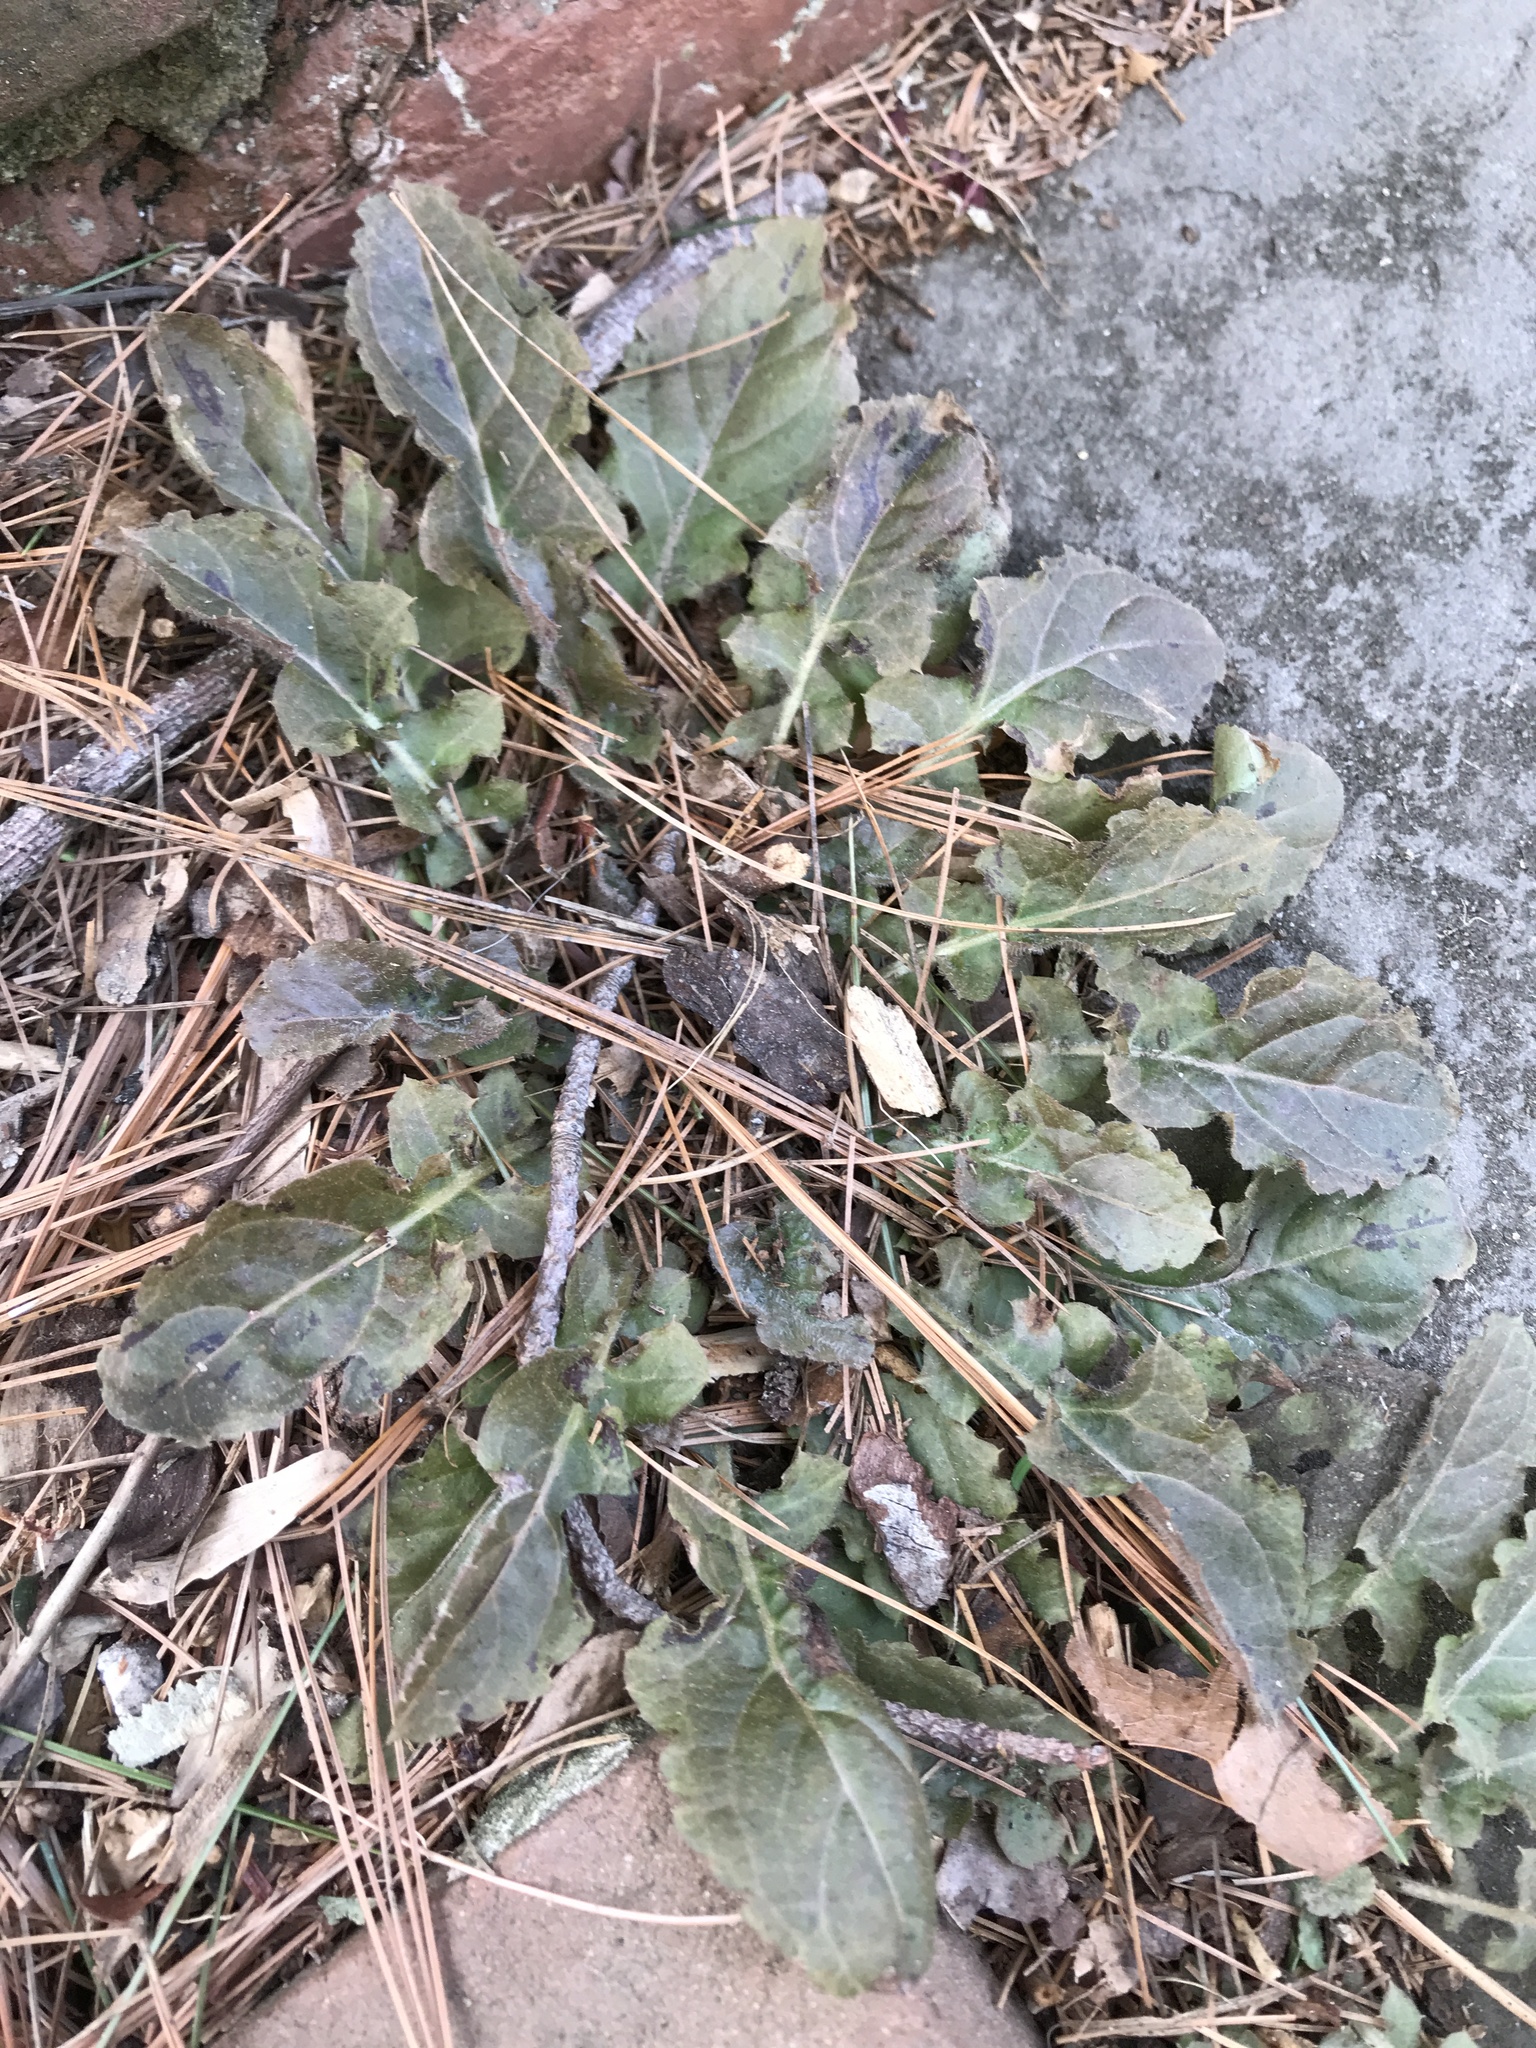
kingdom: Plantae
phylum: Tracheophyta
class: Magnoliopsida
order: Lamiales
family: Lamiaceae
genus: Salvia
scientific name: Salvia lyrata
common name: Cancerweed
